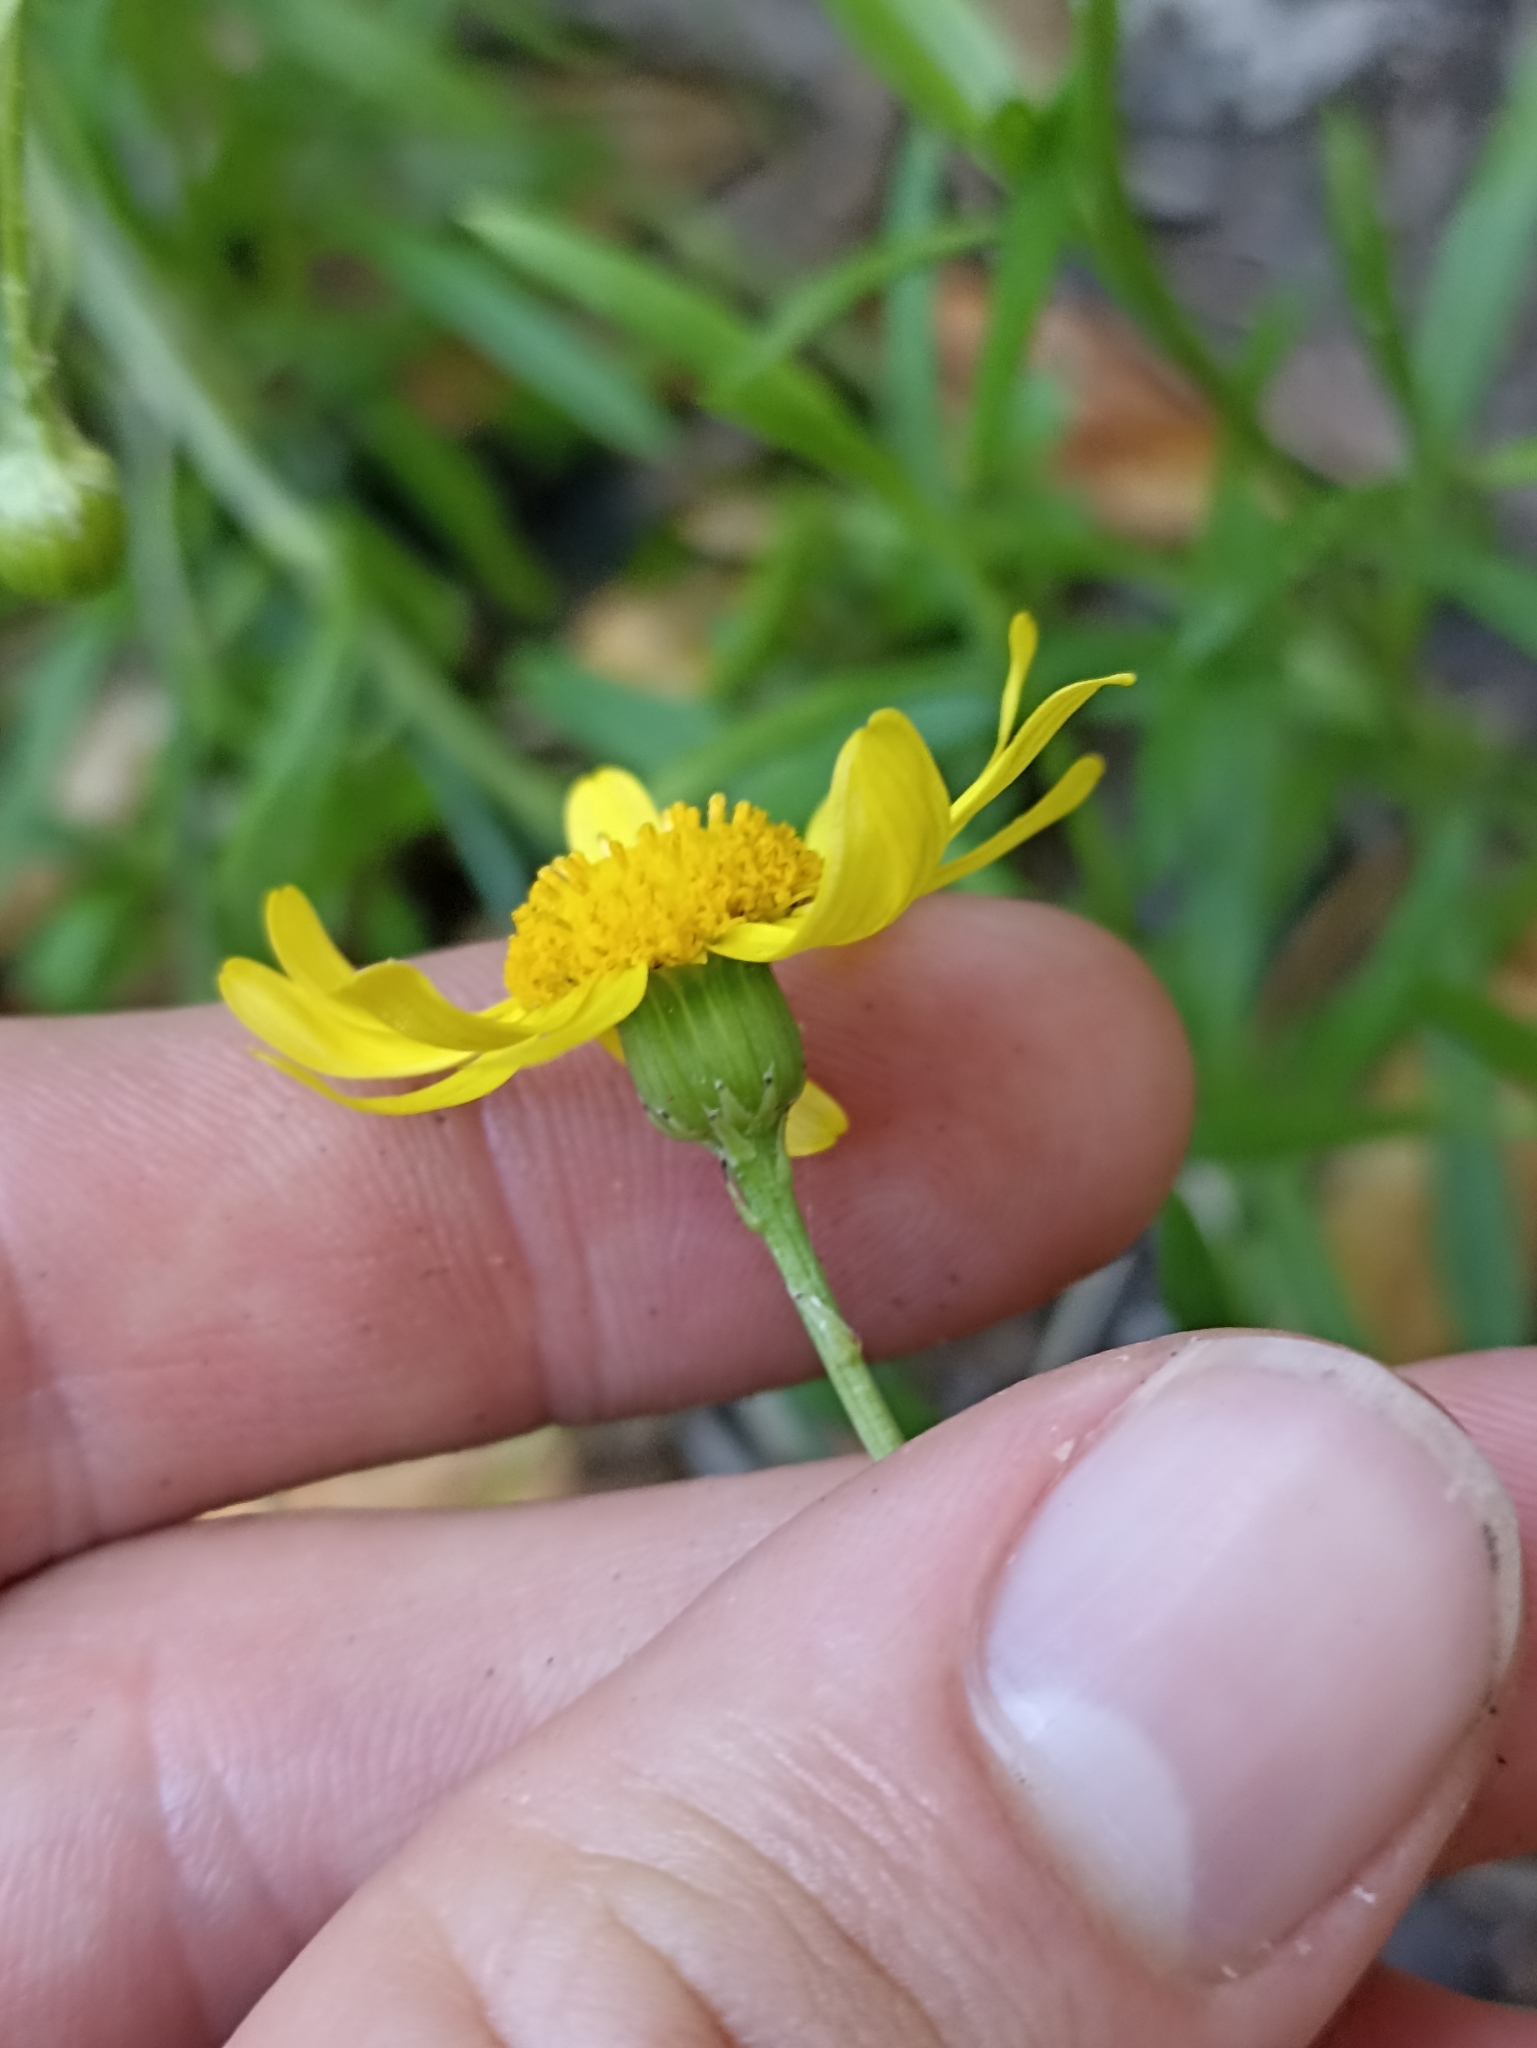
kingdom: Plantae
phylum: Tracheophyta
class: Magnoliopsida
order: Asterales
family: Asteraceae
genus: Senecio
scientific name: Senecio skirrhodon
